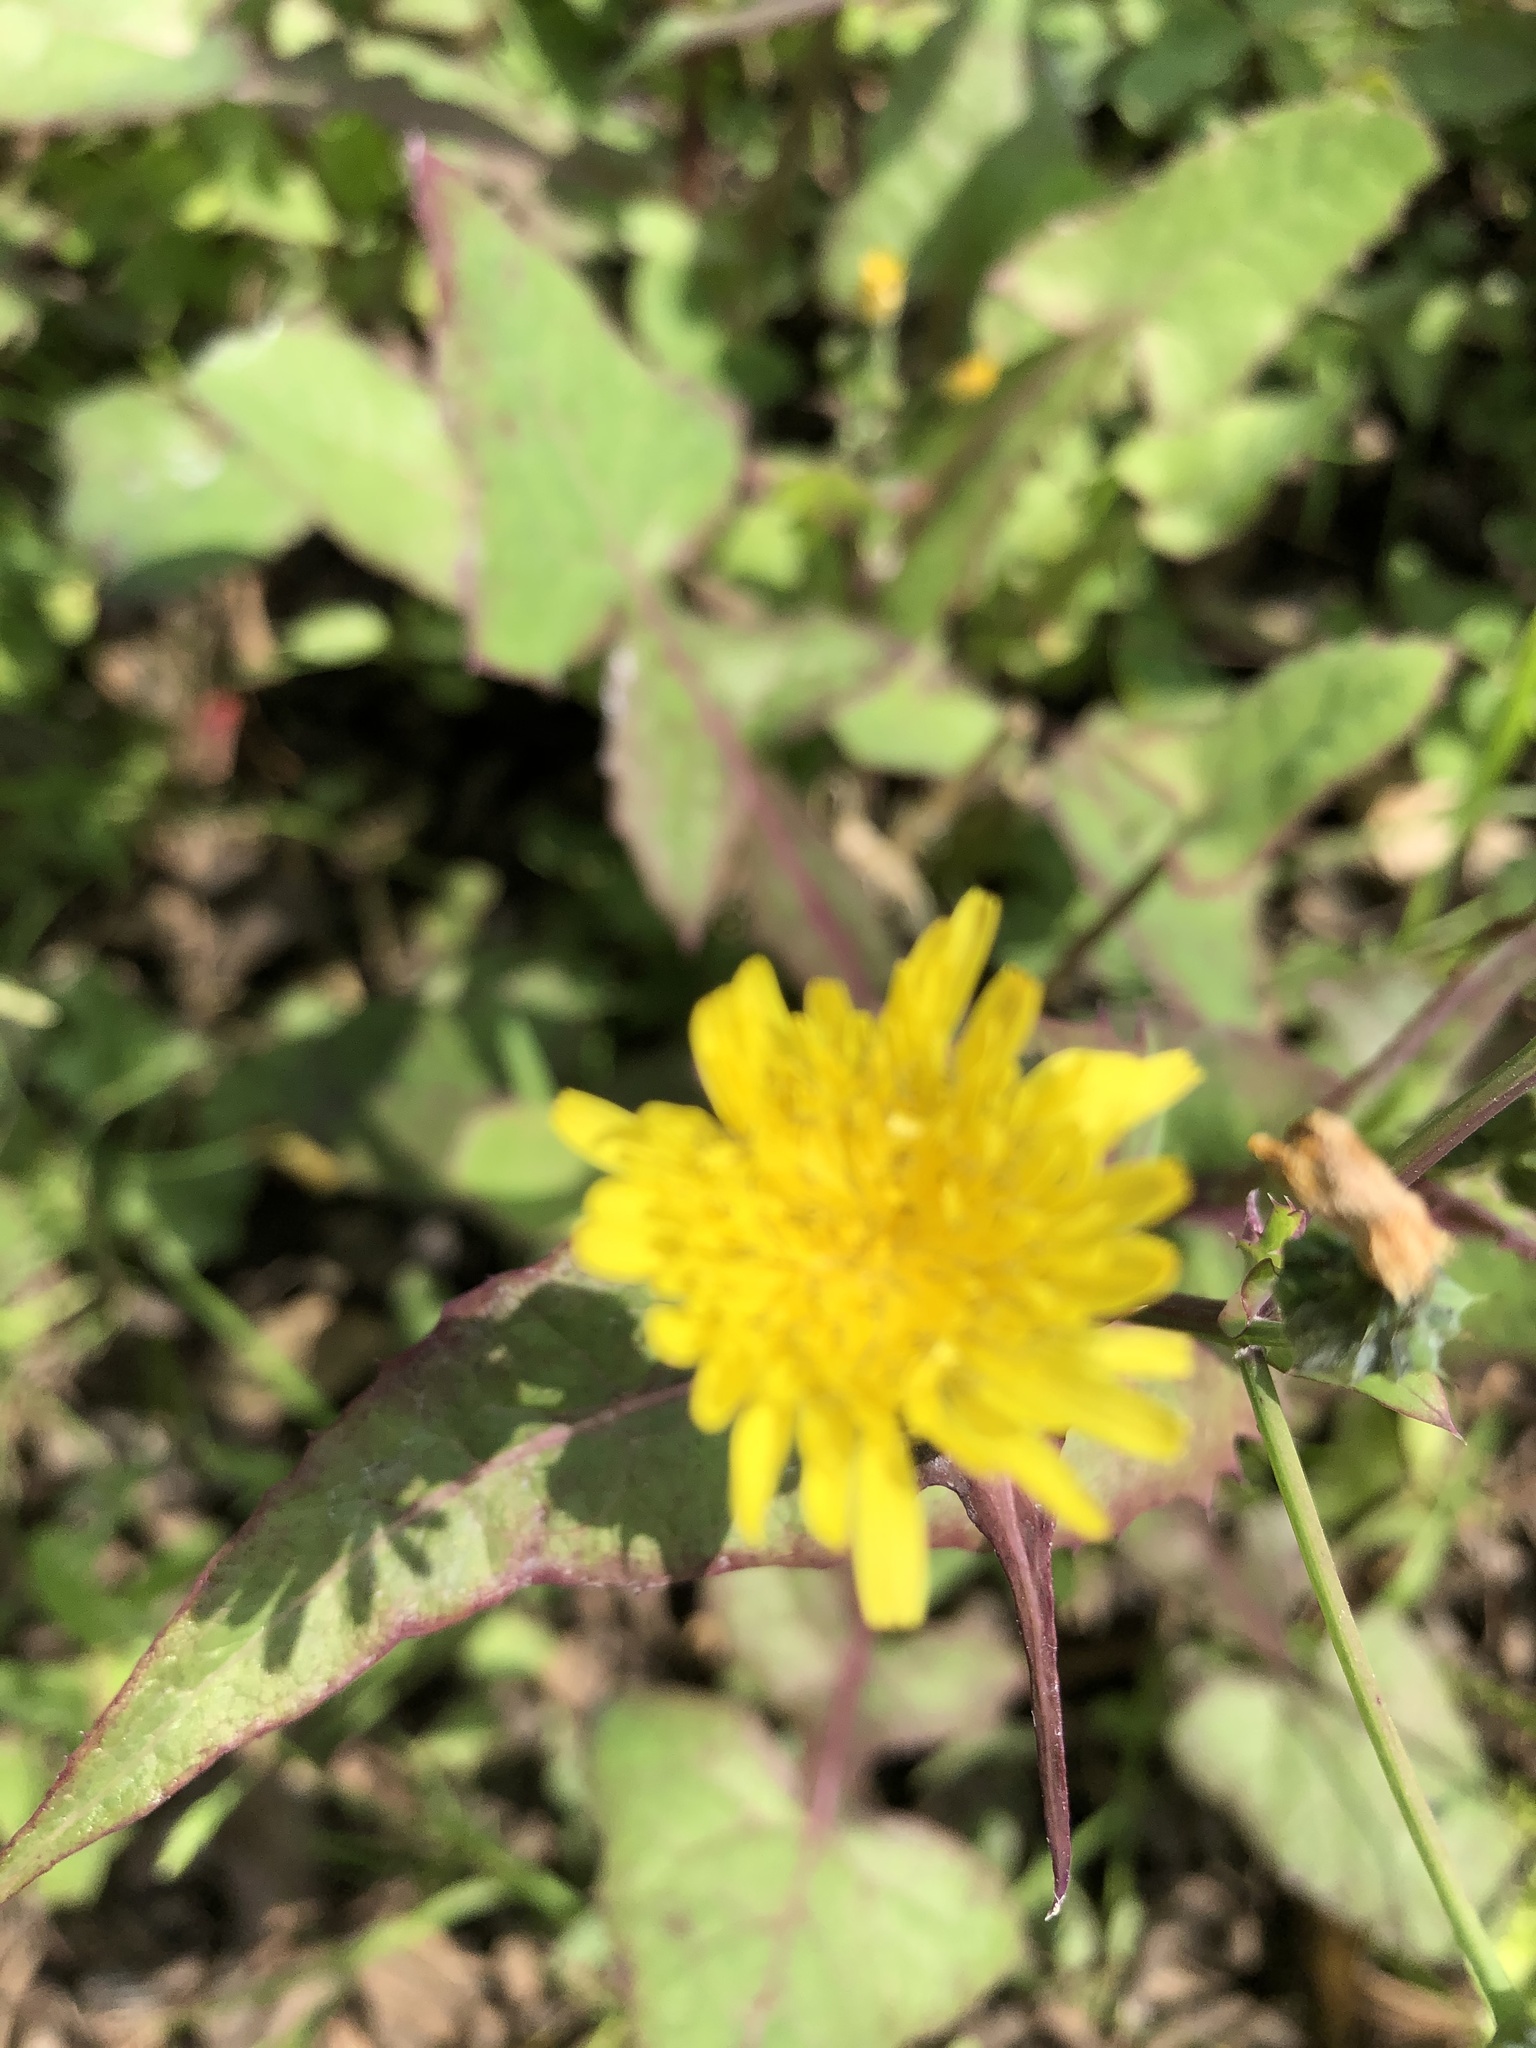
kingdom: Plantae
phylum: Tracheophyta
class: Magnoliopsida
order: Asterales
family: Asteraceae
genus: Taraxacum
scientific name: Taraxacum officinale
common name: Common dandelion
